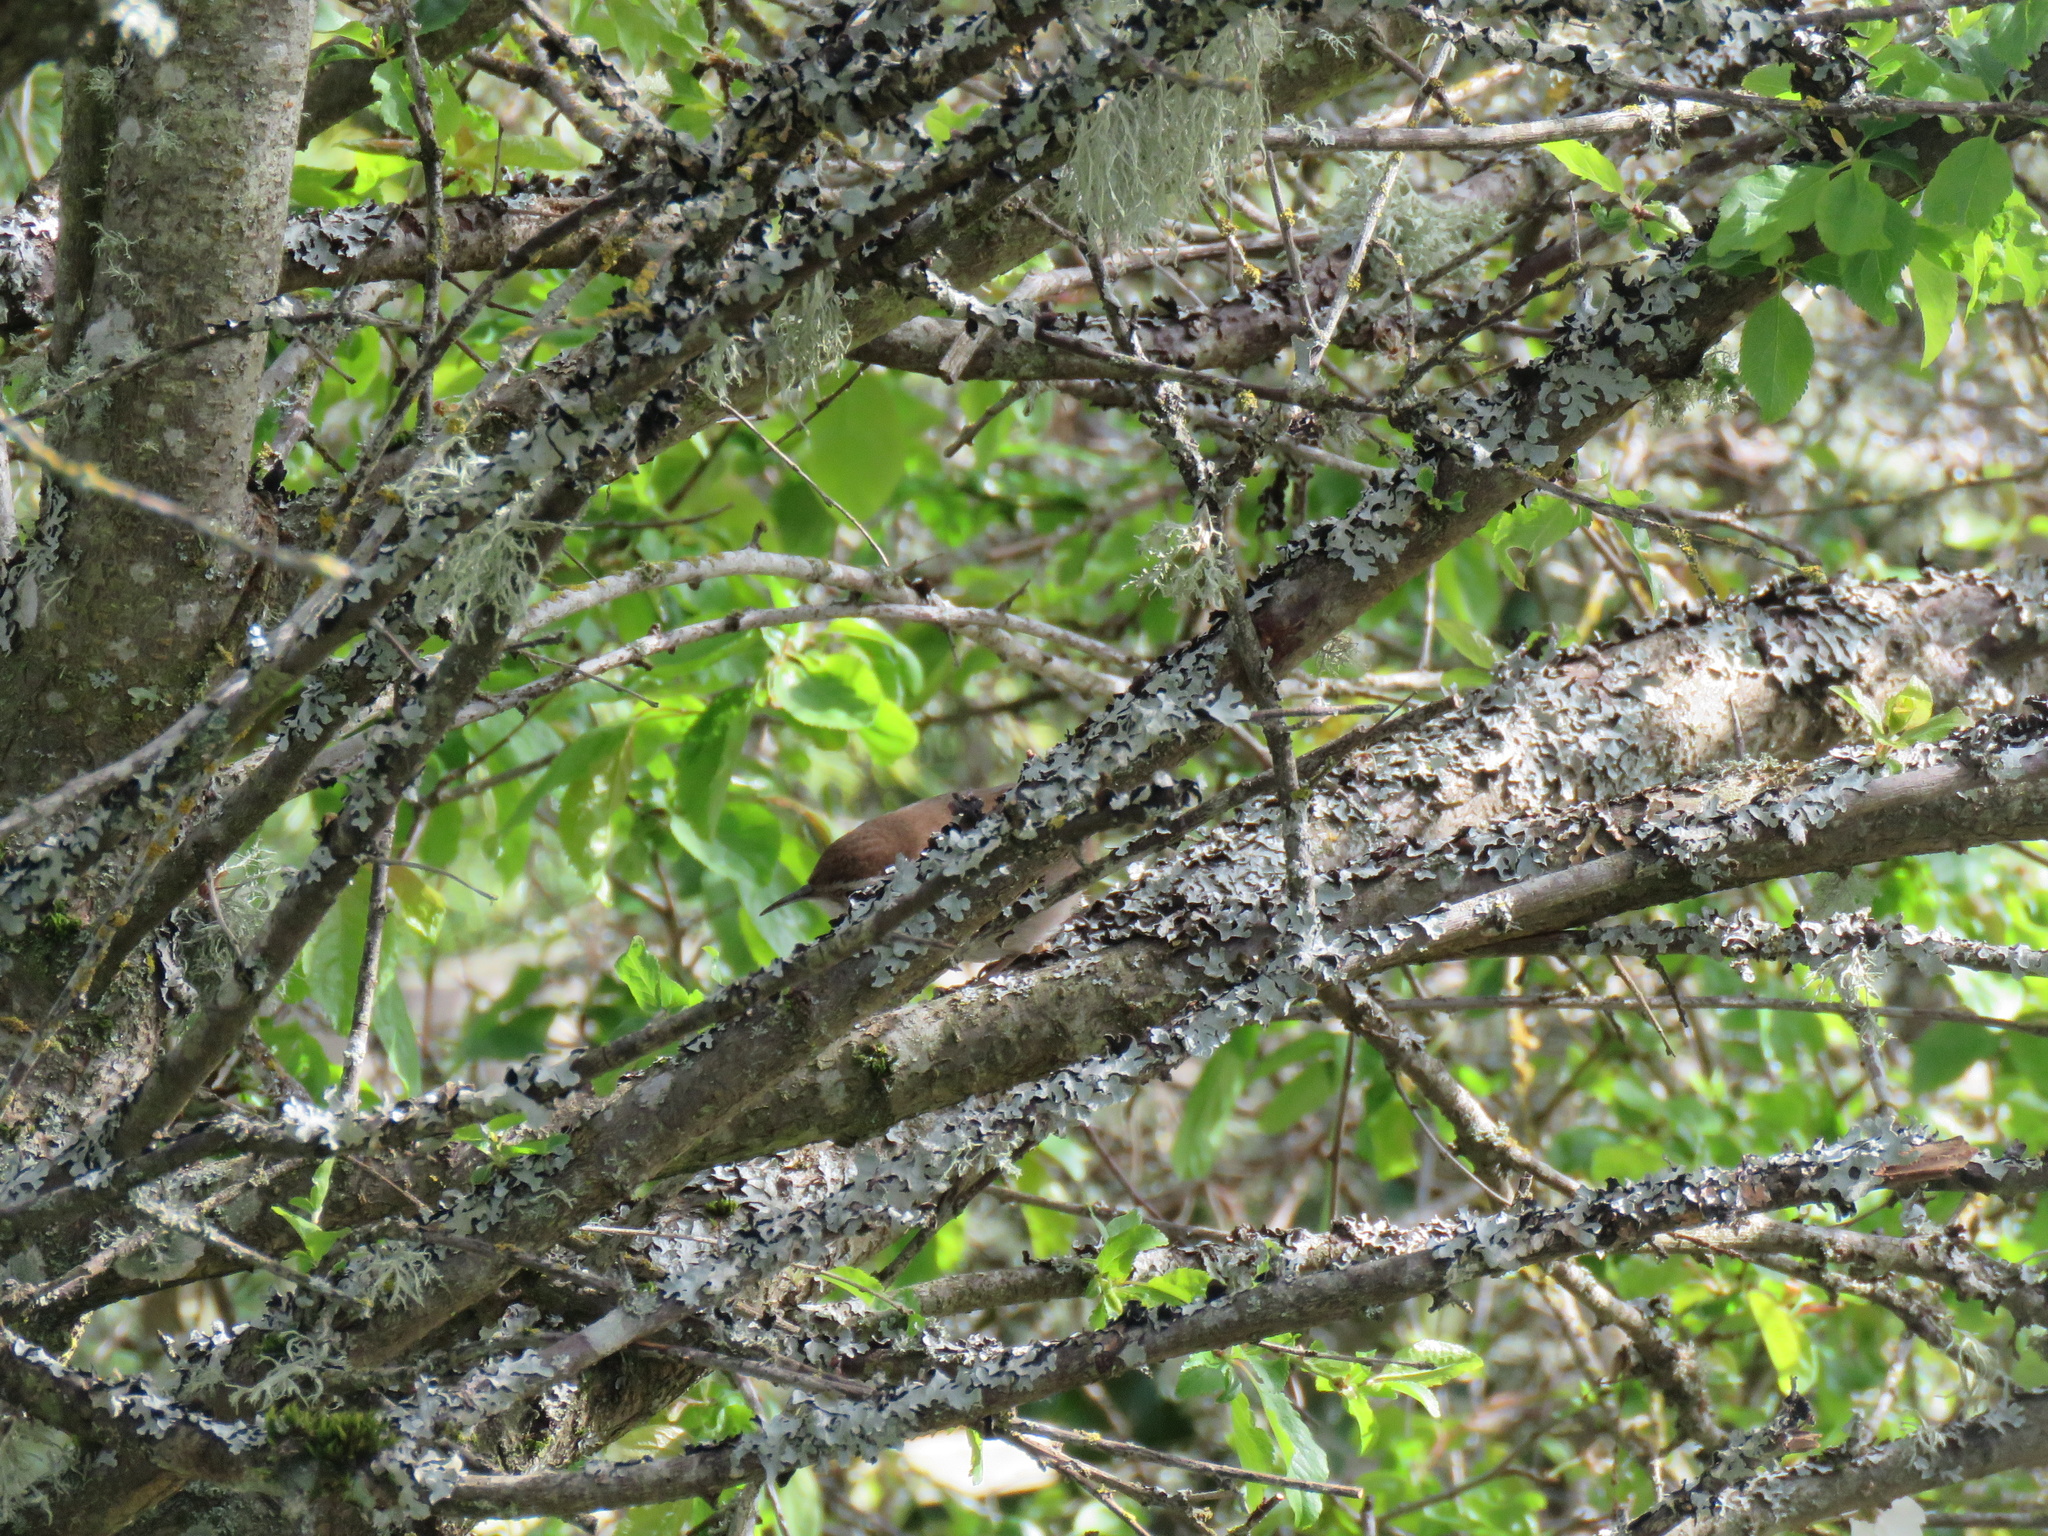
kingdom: Animalia
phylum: Chordata
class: Aves
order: Passeriformes
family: Troglodytidae
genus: Thryomanes
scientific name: Thryomanes bewickii
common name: Bewick's wren
